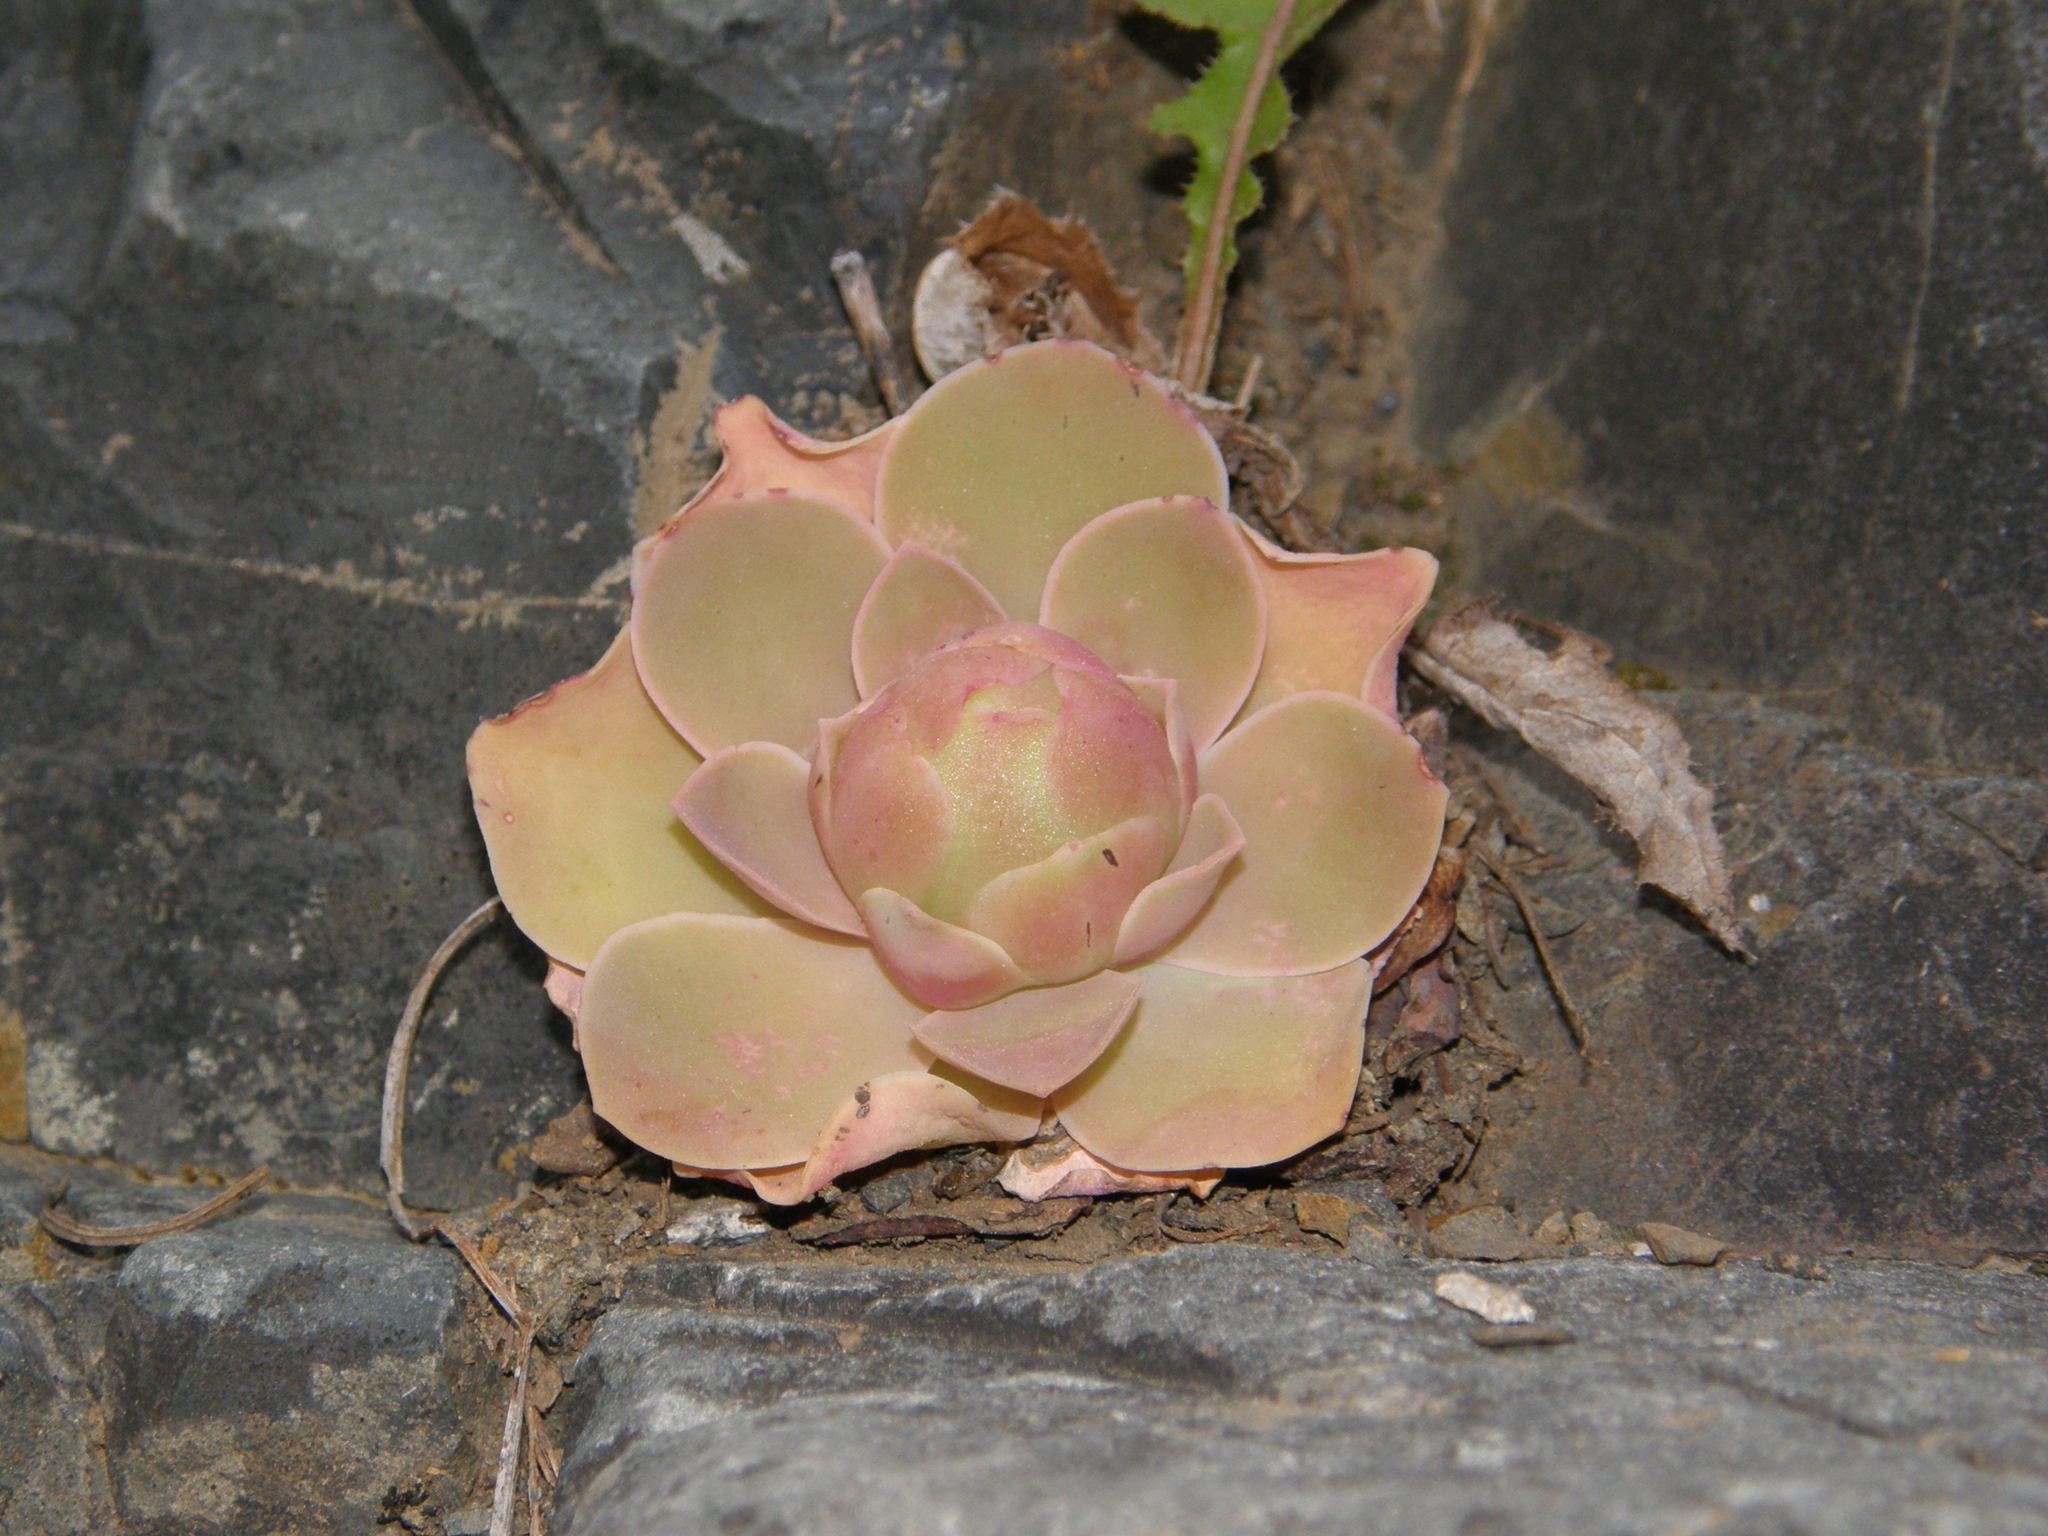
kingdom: Plantae
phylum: Tracheophyta
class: Magnoliopsida
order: Saxifragales
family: Crassulaceae
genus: Aeonium
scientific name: Aeonium diplocyclum
